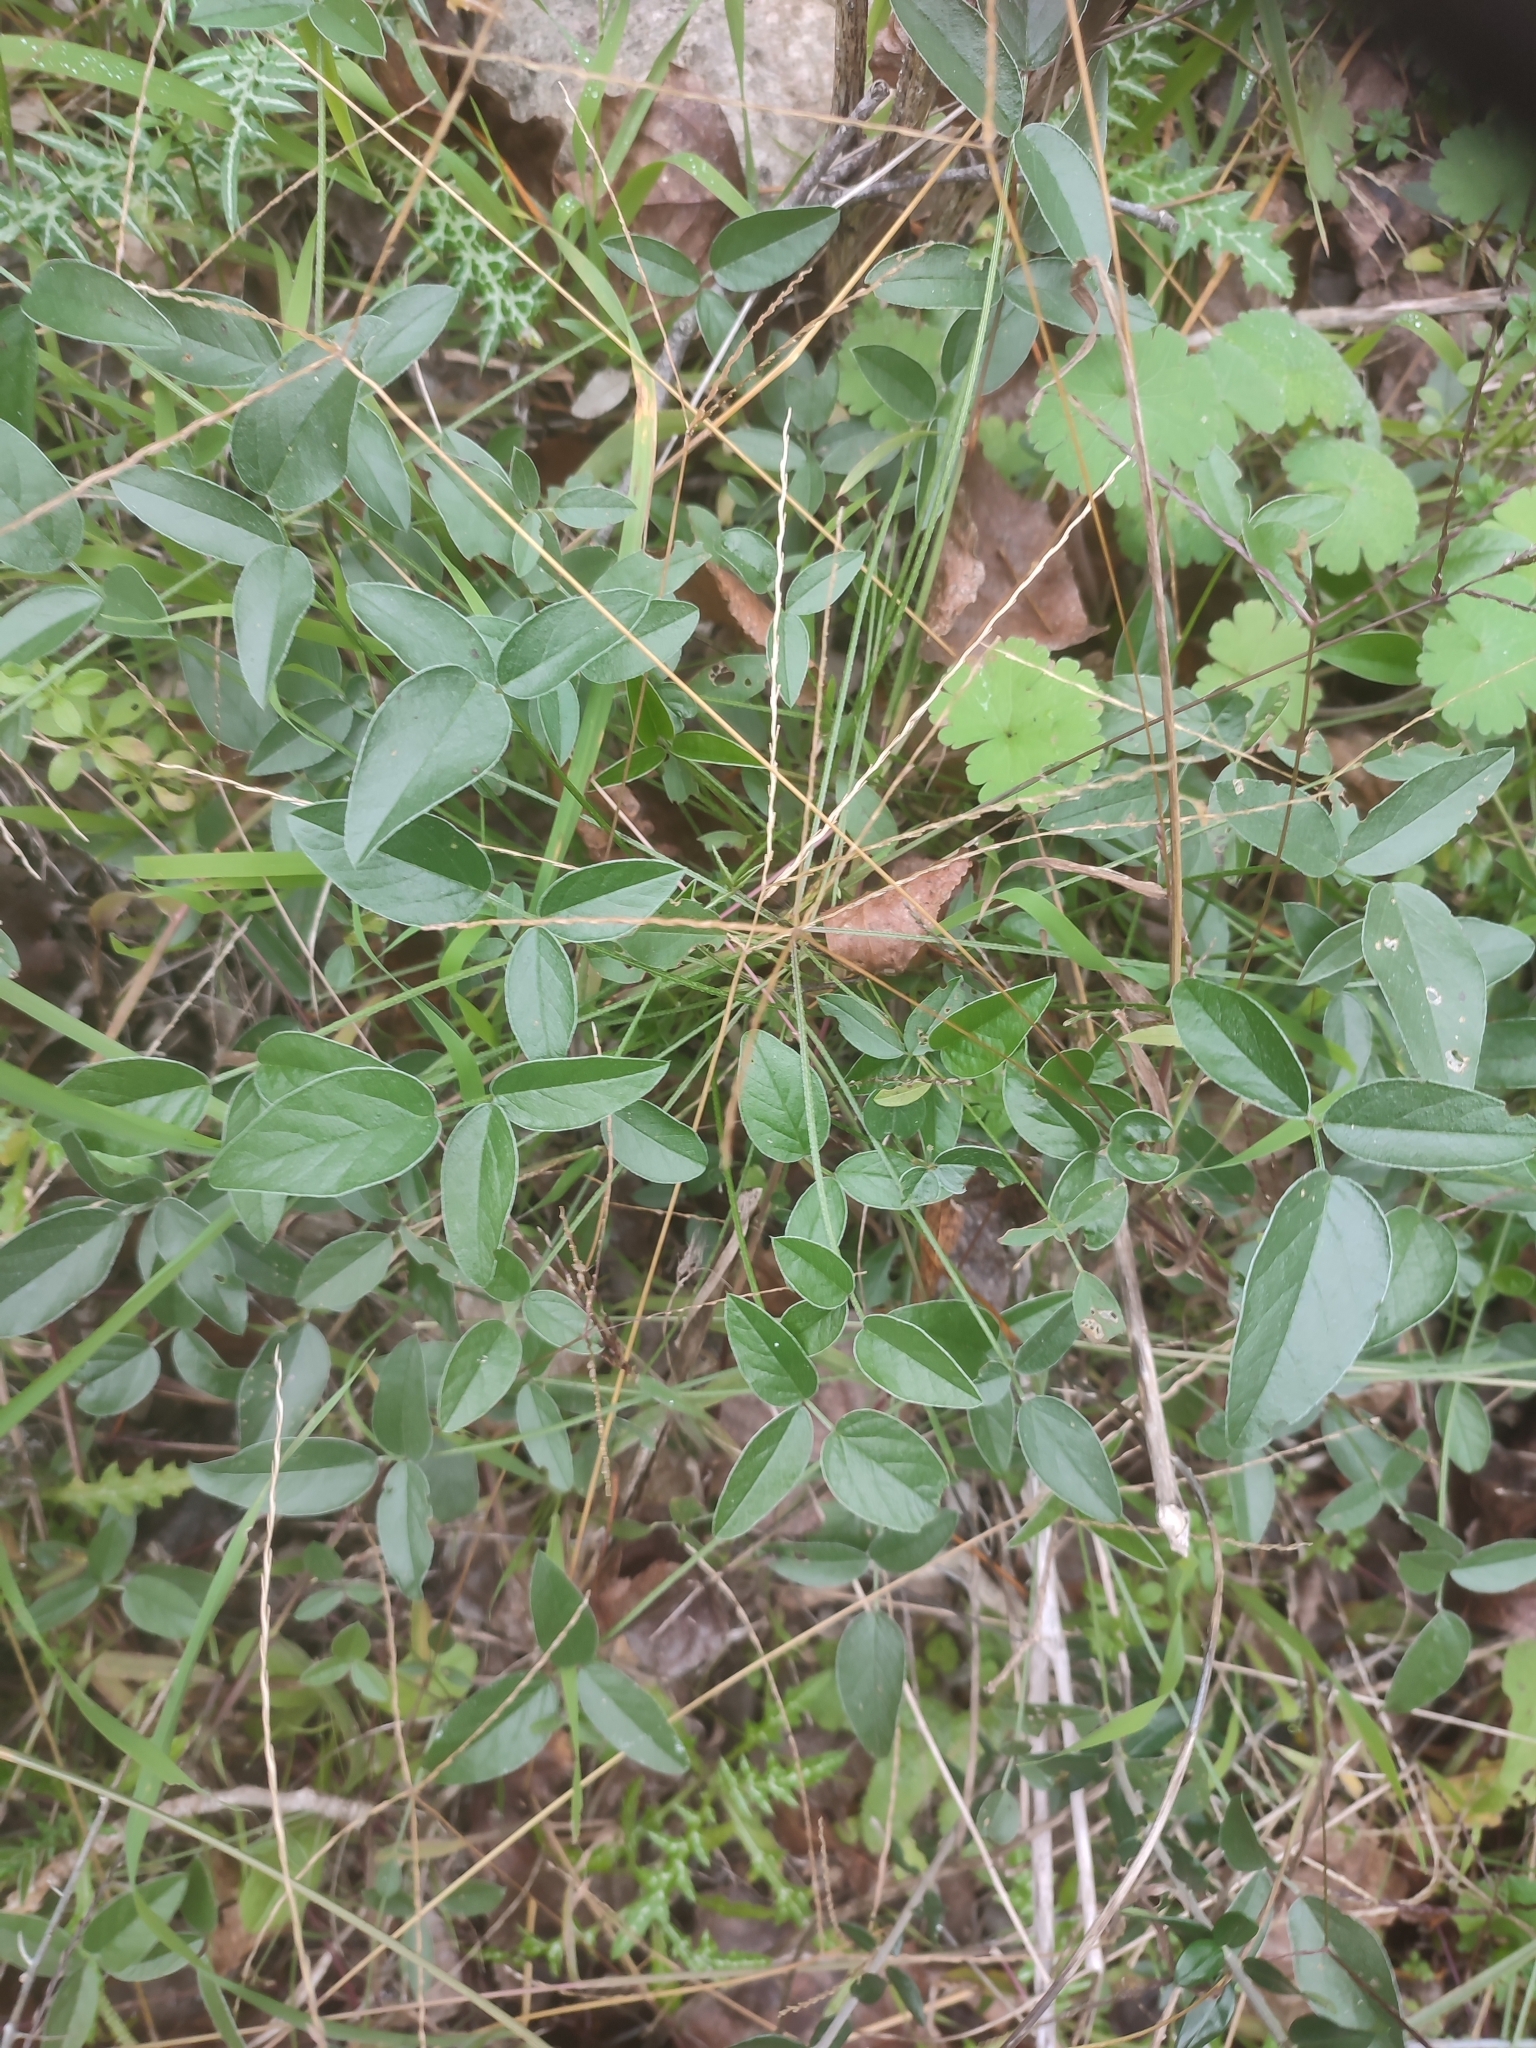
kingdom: Plantae
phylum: Tracheophyta
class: Magnoliopsida
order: Fabales
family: Fabaceae
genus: Bituminaria
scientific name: Bituminaria bituminosa
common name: Arabian pea
